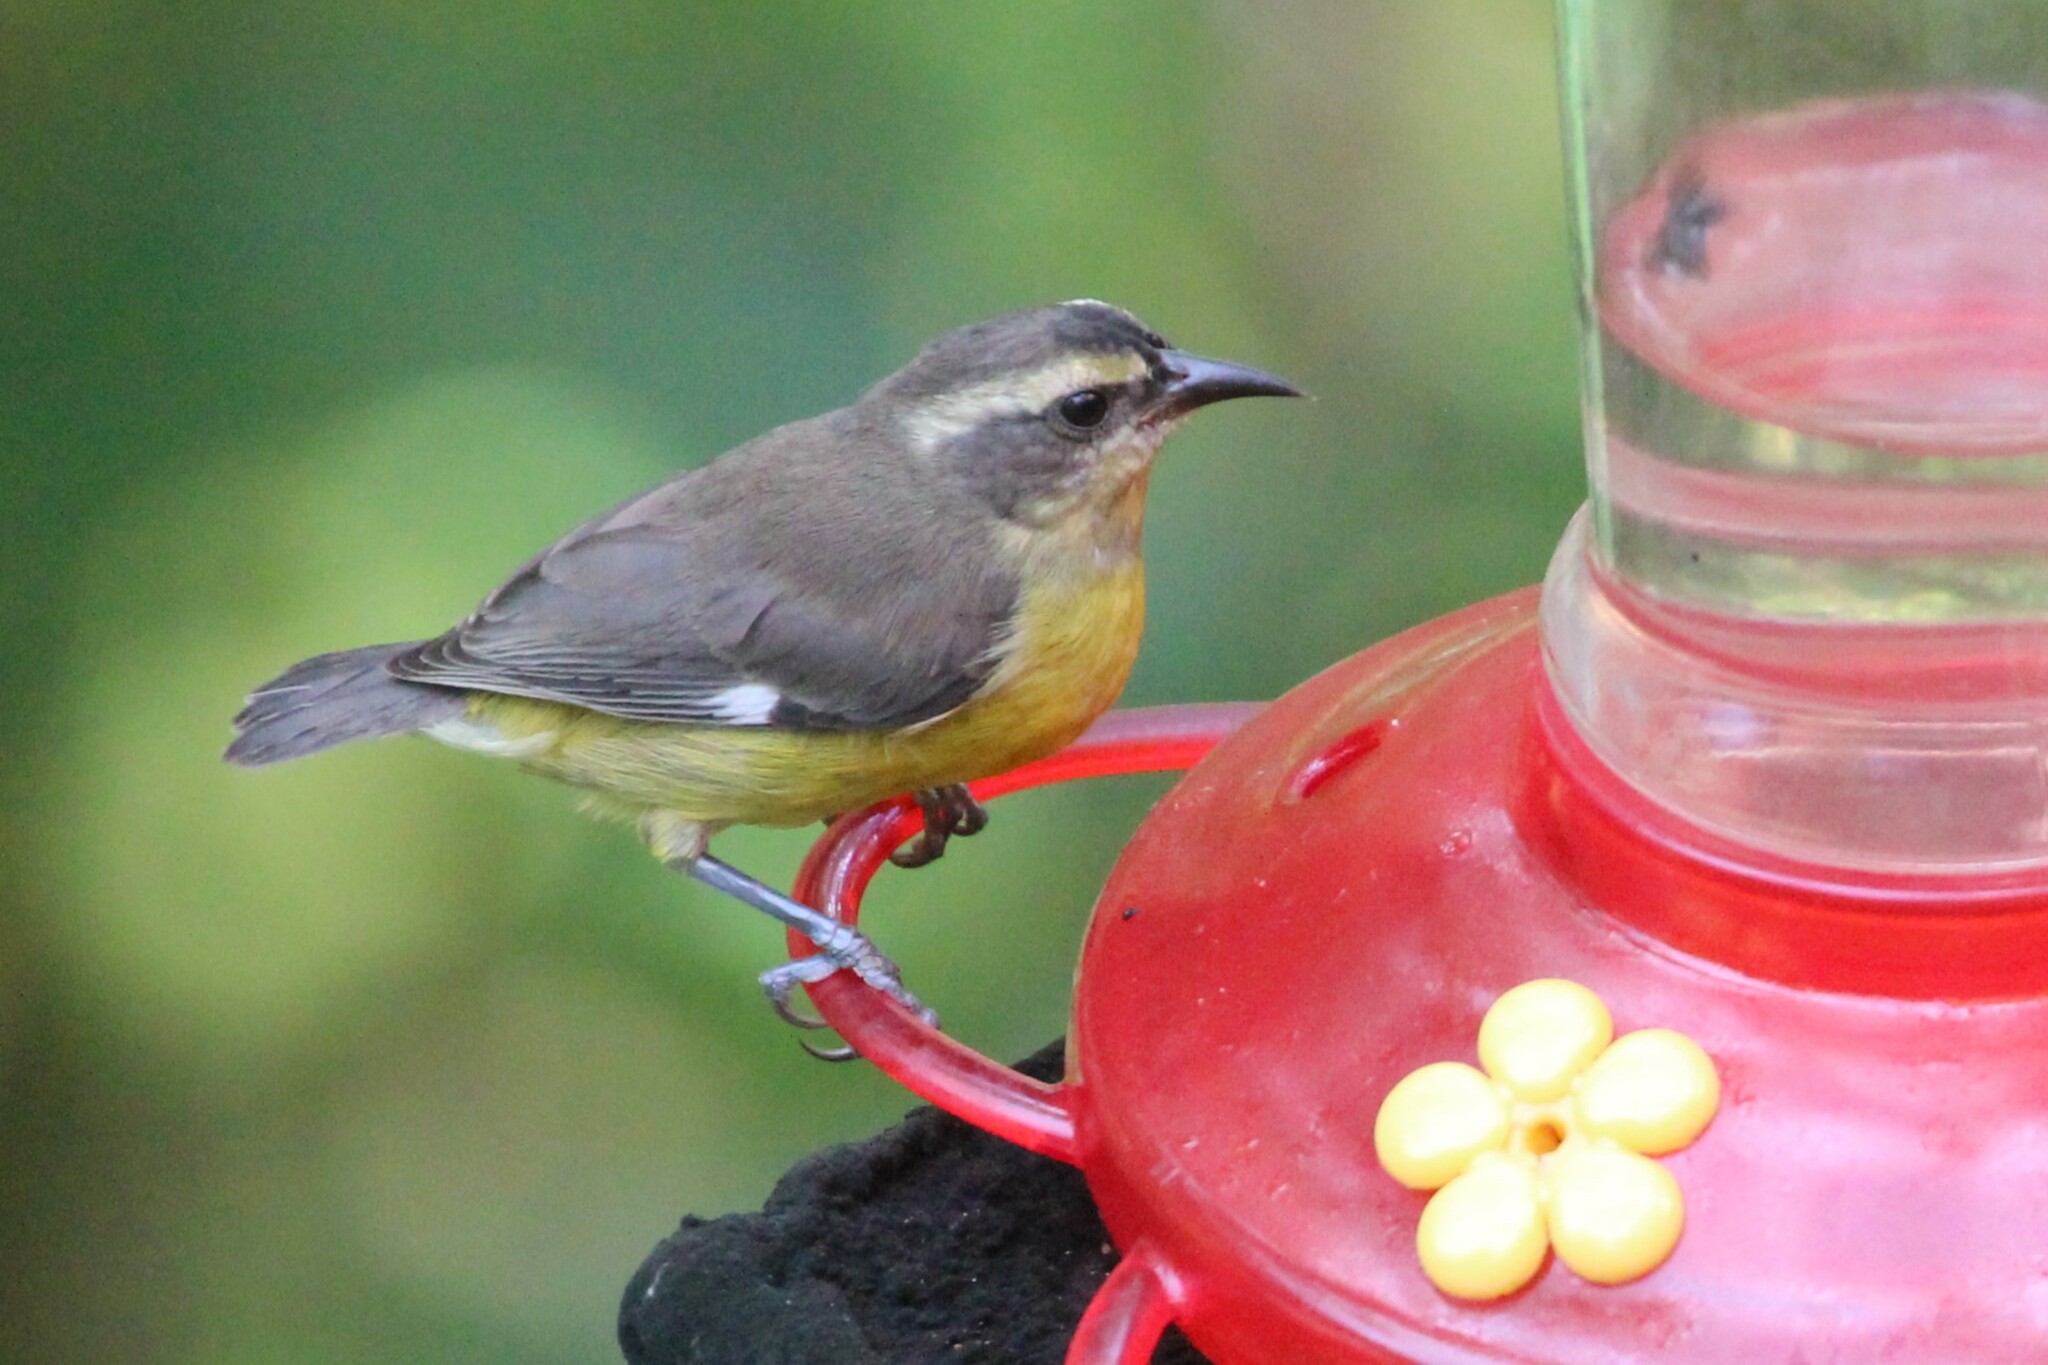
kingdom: Animalia
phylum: Chordata
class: Aves
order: Passeriformes
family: Thraupidae
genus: Coereba
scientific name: Coereba flaveola
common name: Bananaquit
